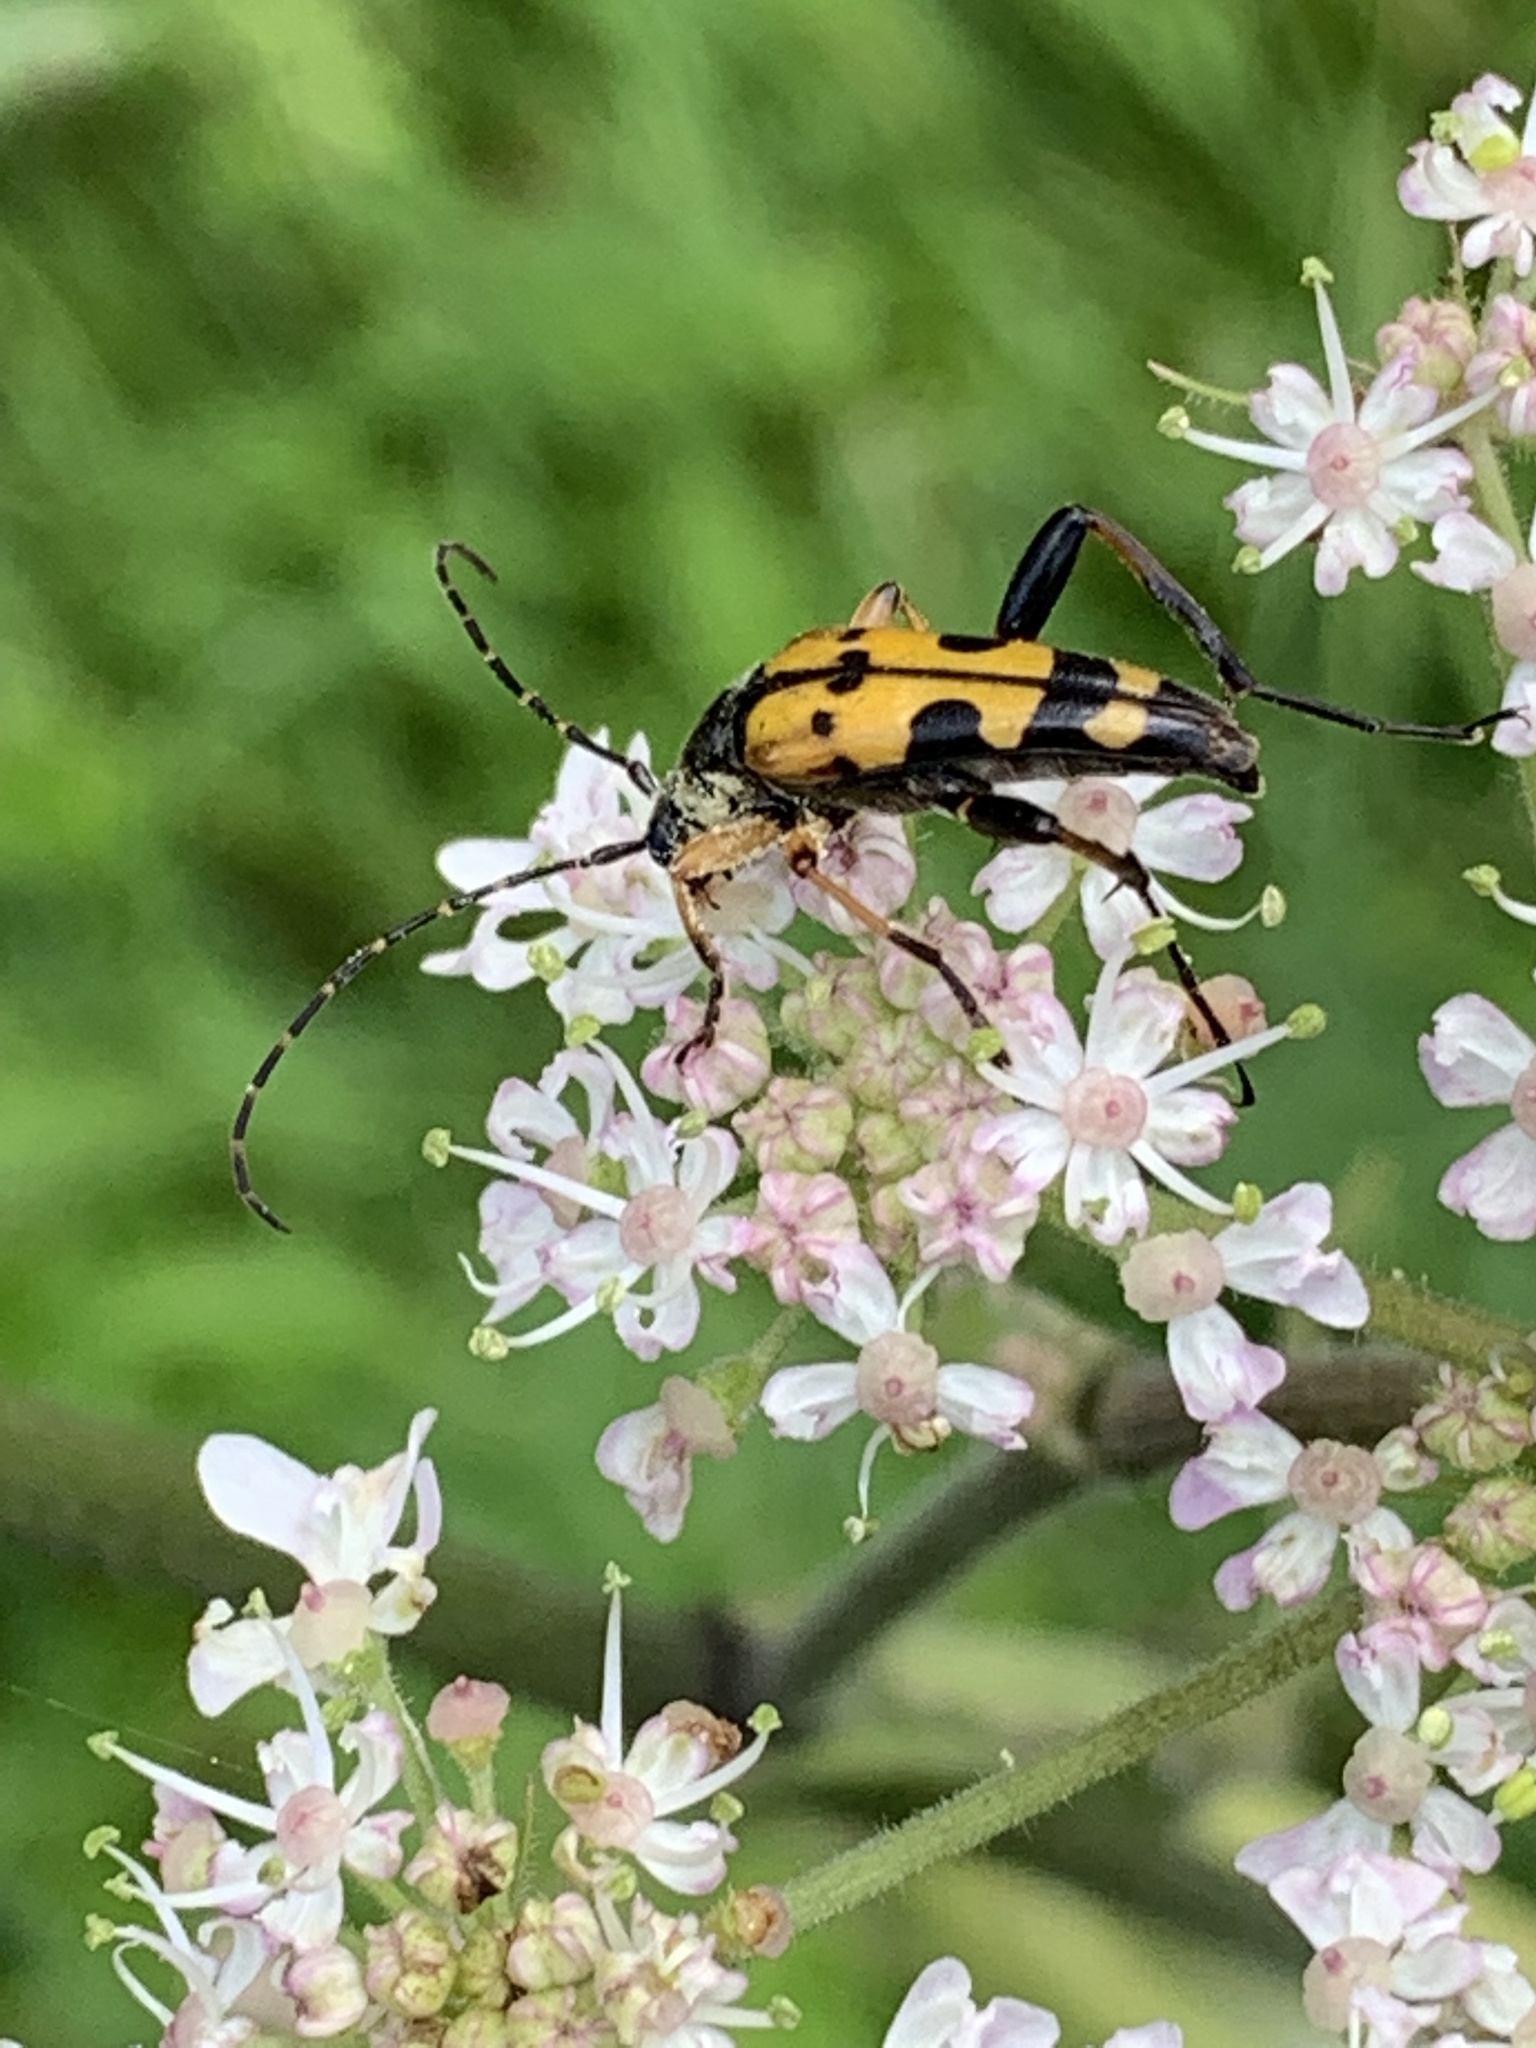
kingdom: Animalia
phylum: Arthropoda
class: Insecta
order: Coleoptera
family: Cerambycidae
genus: Rutpela
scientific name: Rutpela maculata
